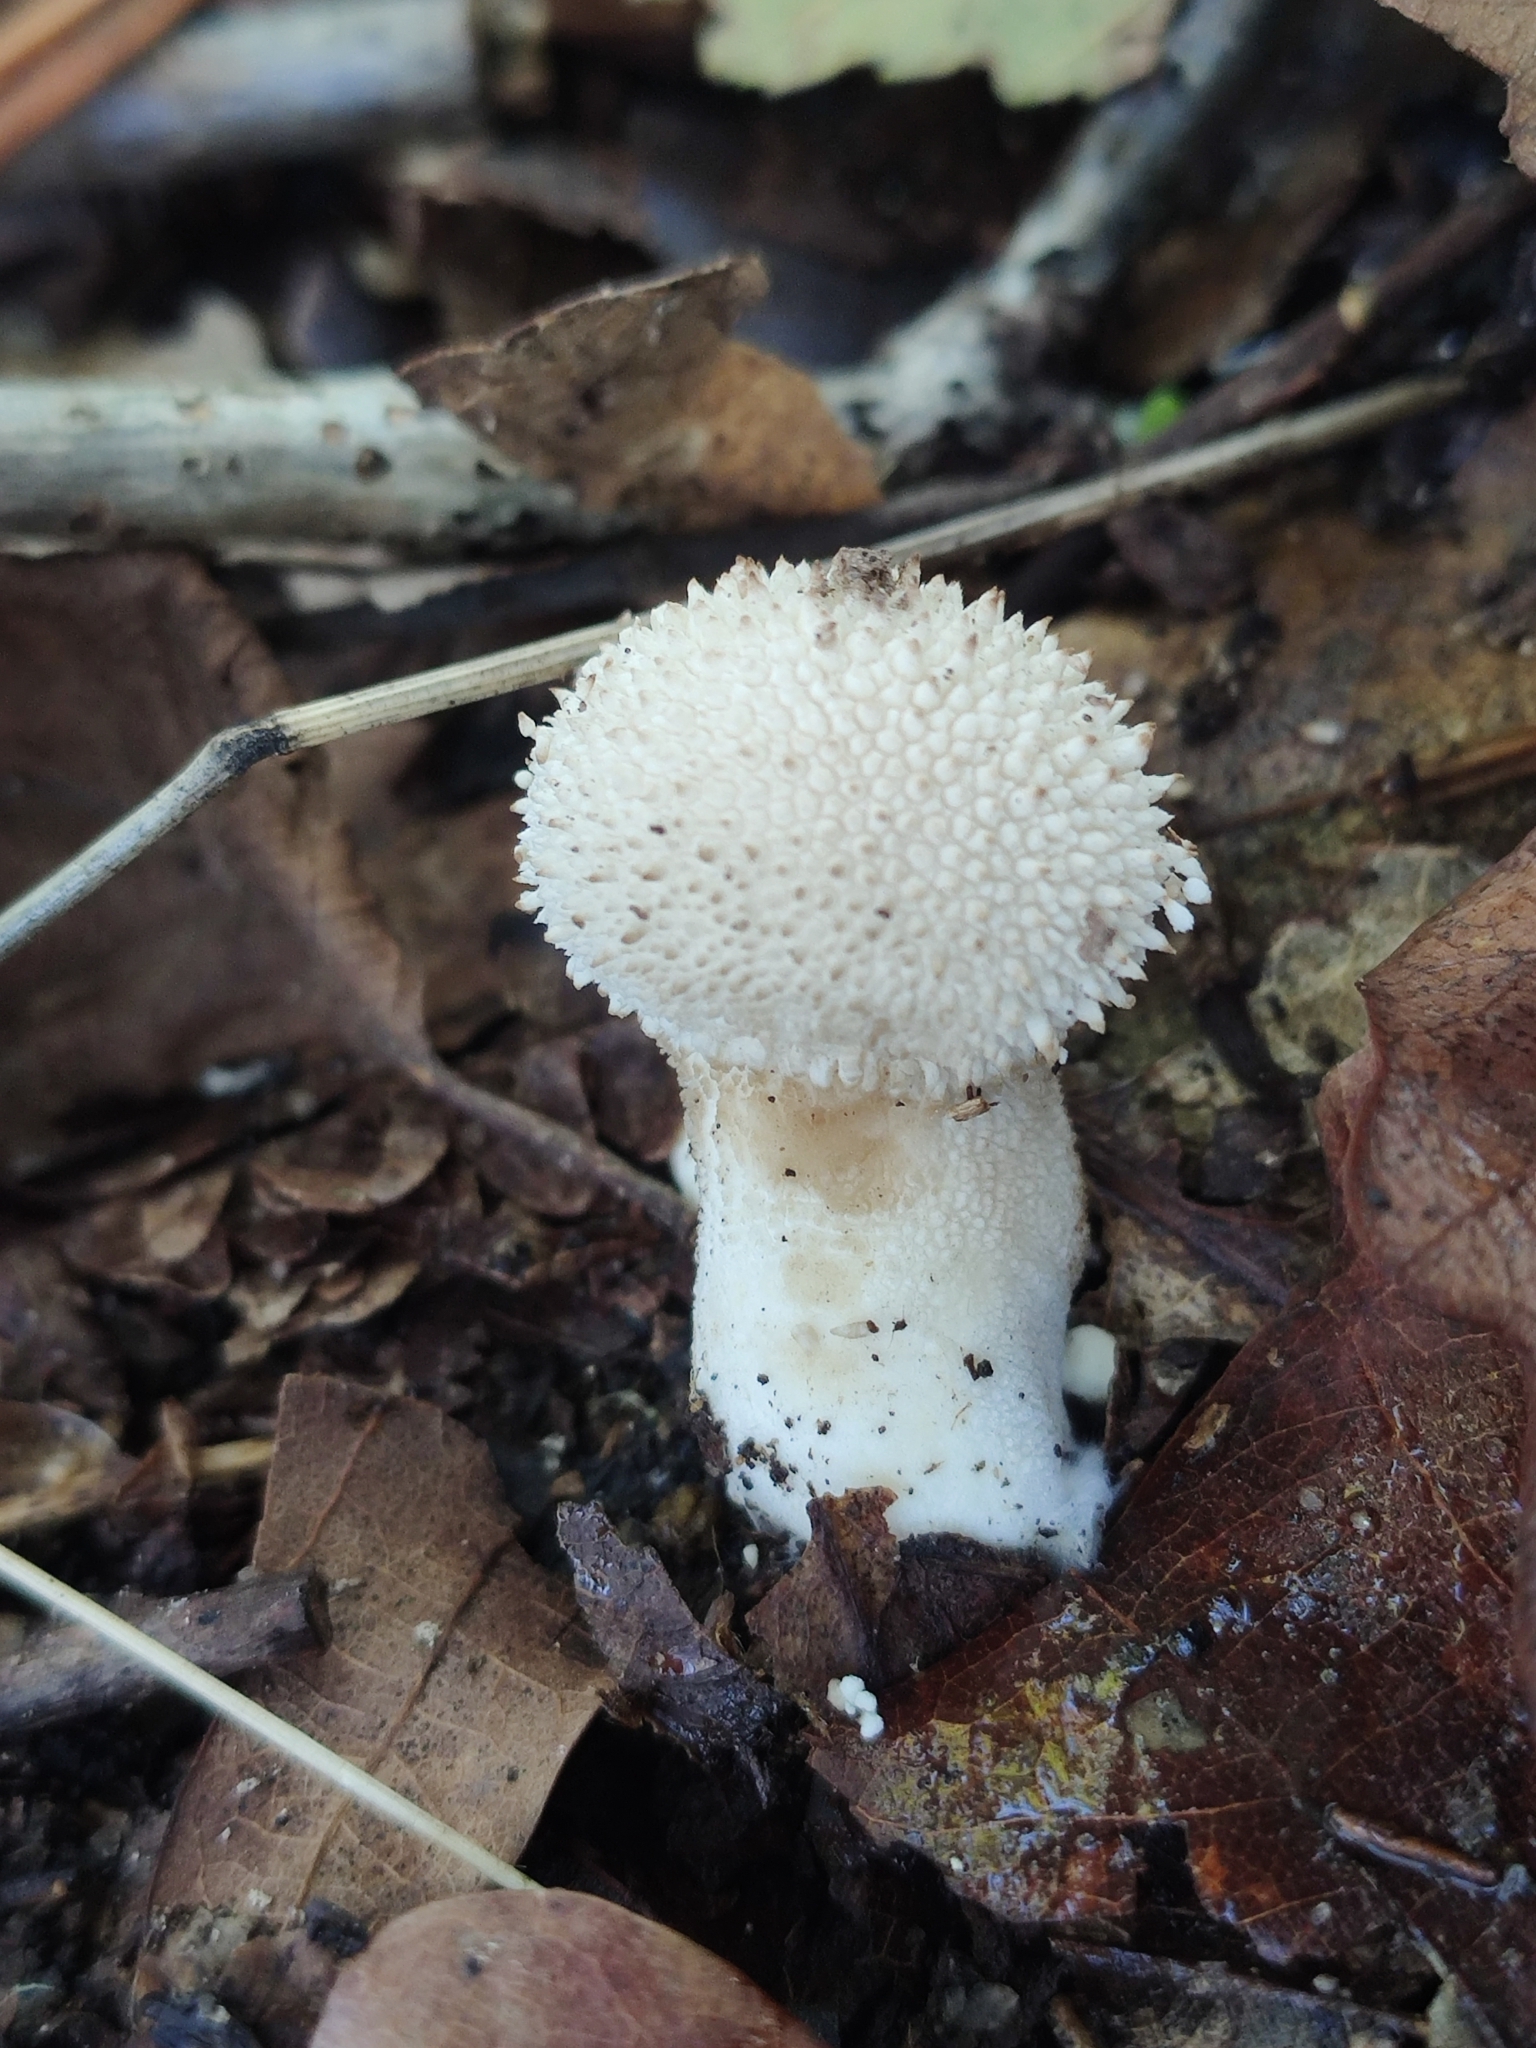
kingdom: Fungi
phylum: Basidiomycota
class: Agaricomycetes
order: Agaricales
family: Lycoperdaceae
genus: Lycoperdon
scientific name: Lycoperdon perlatum
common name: Common puffball
